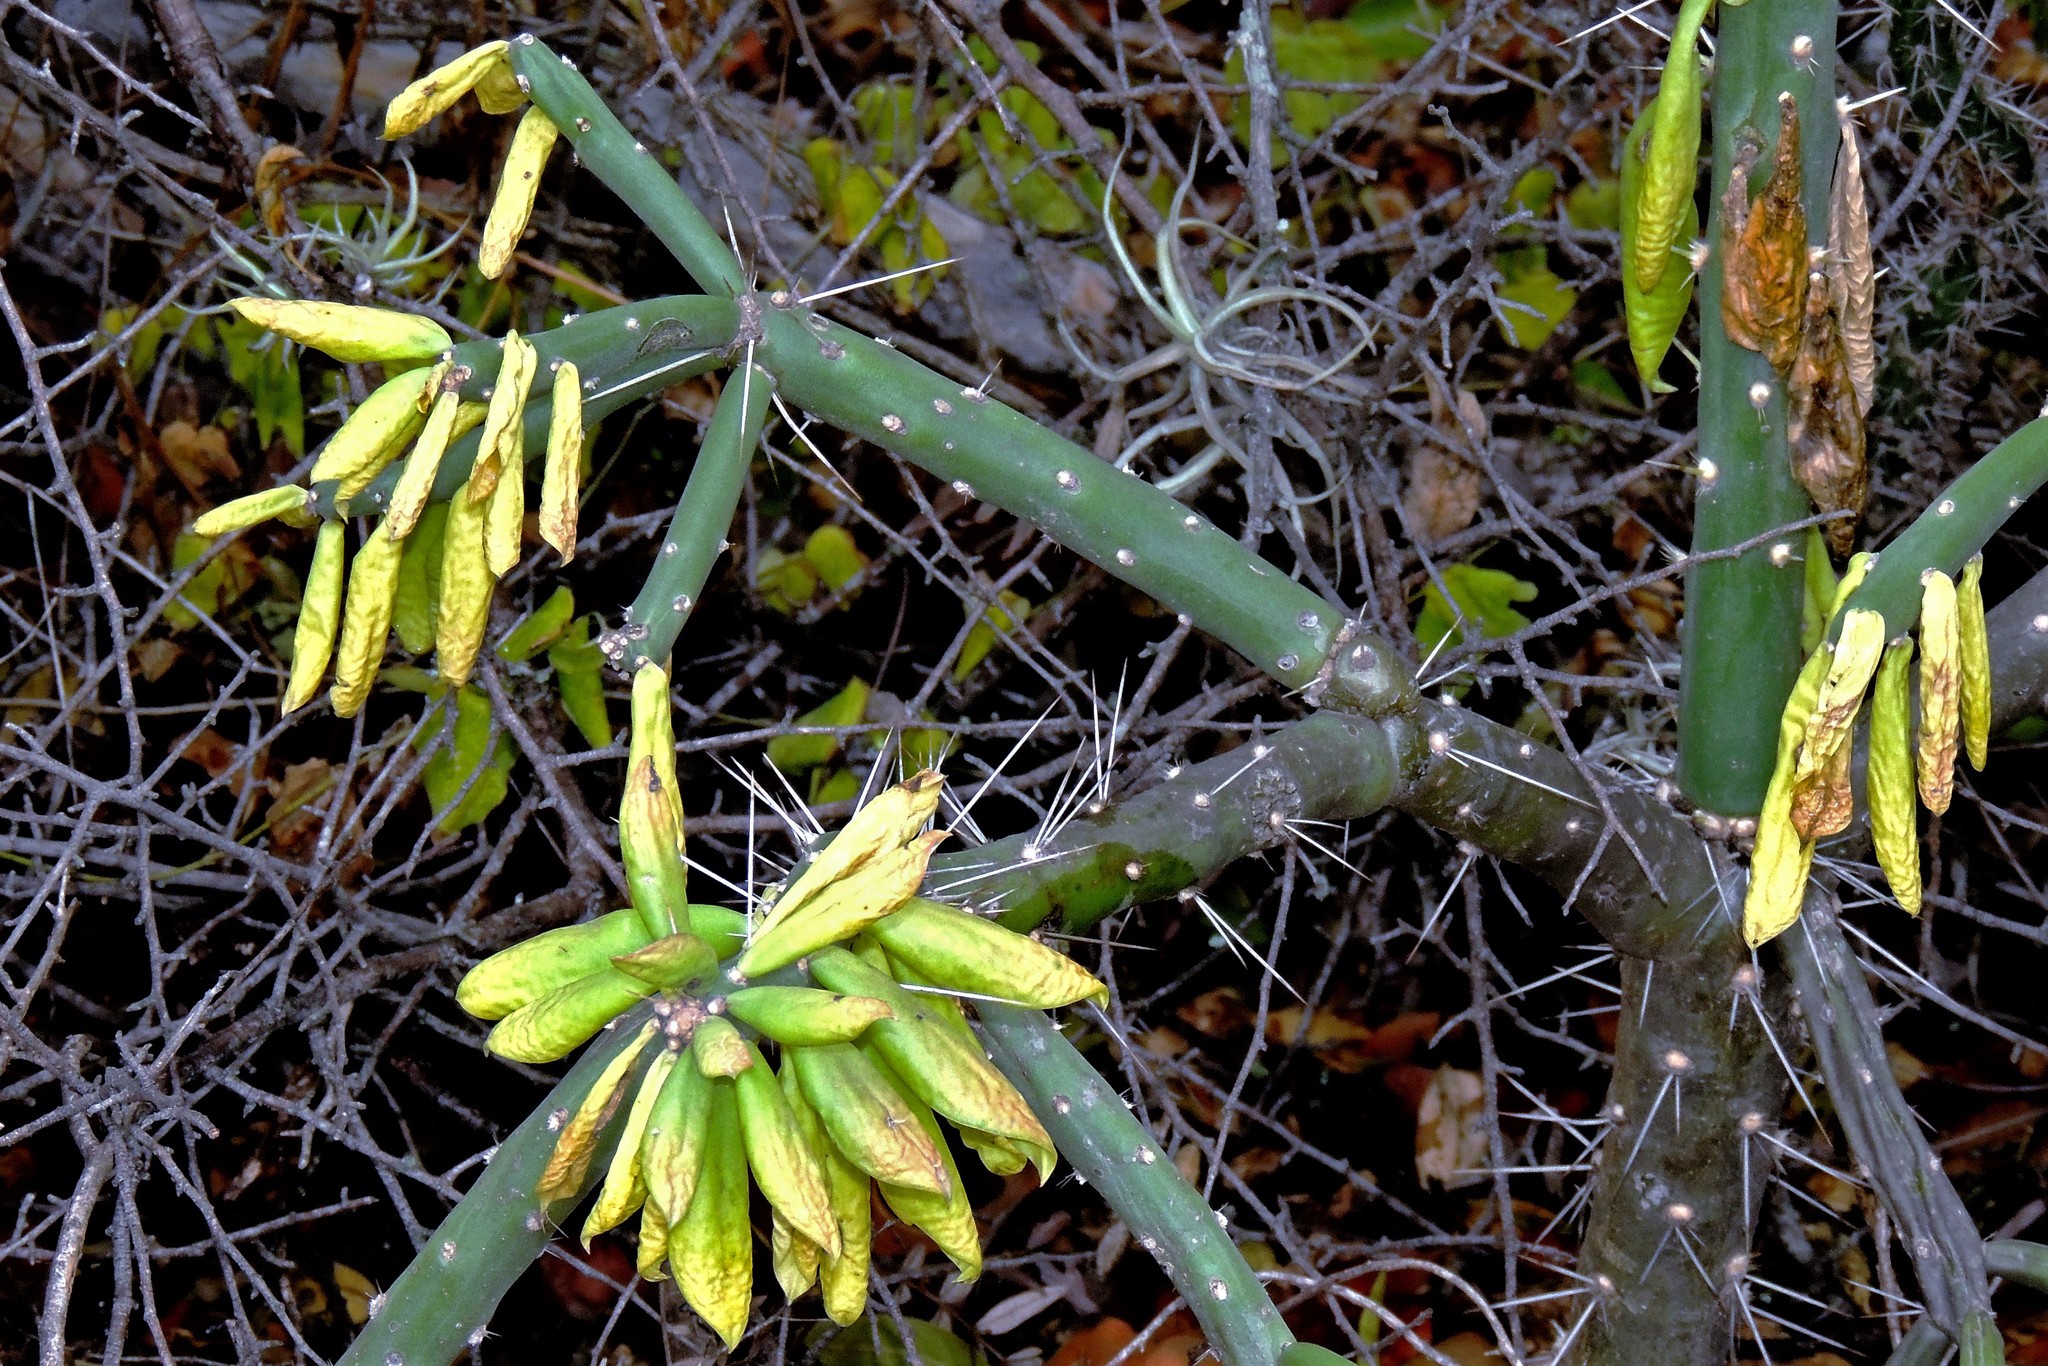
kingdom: Plantae
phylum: Tracheophyta
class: Magnoliopsida
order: Caryophyllales
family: Cactaceae
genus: Quiabentia
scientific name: Quiabentia verticillata
